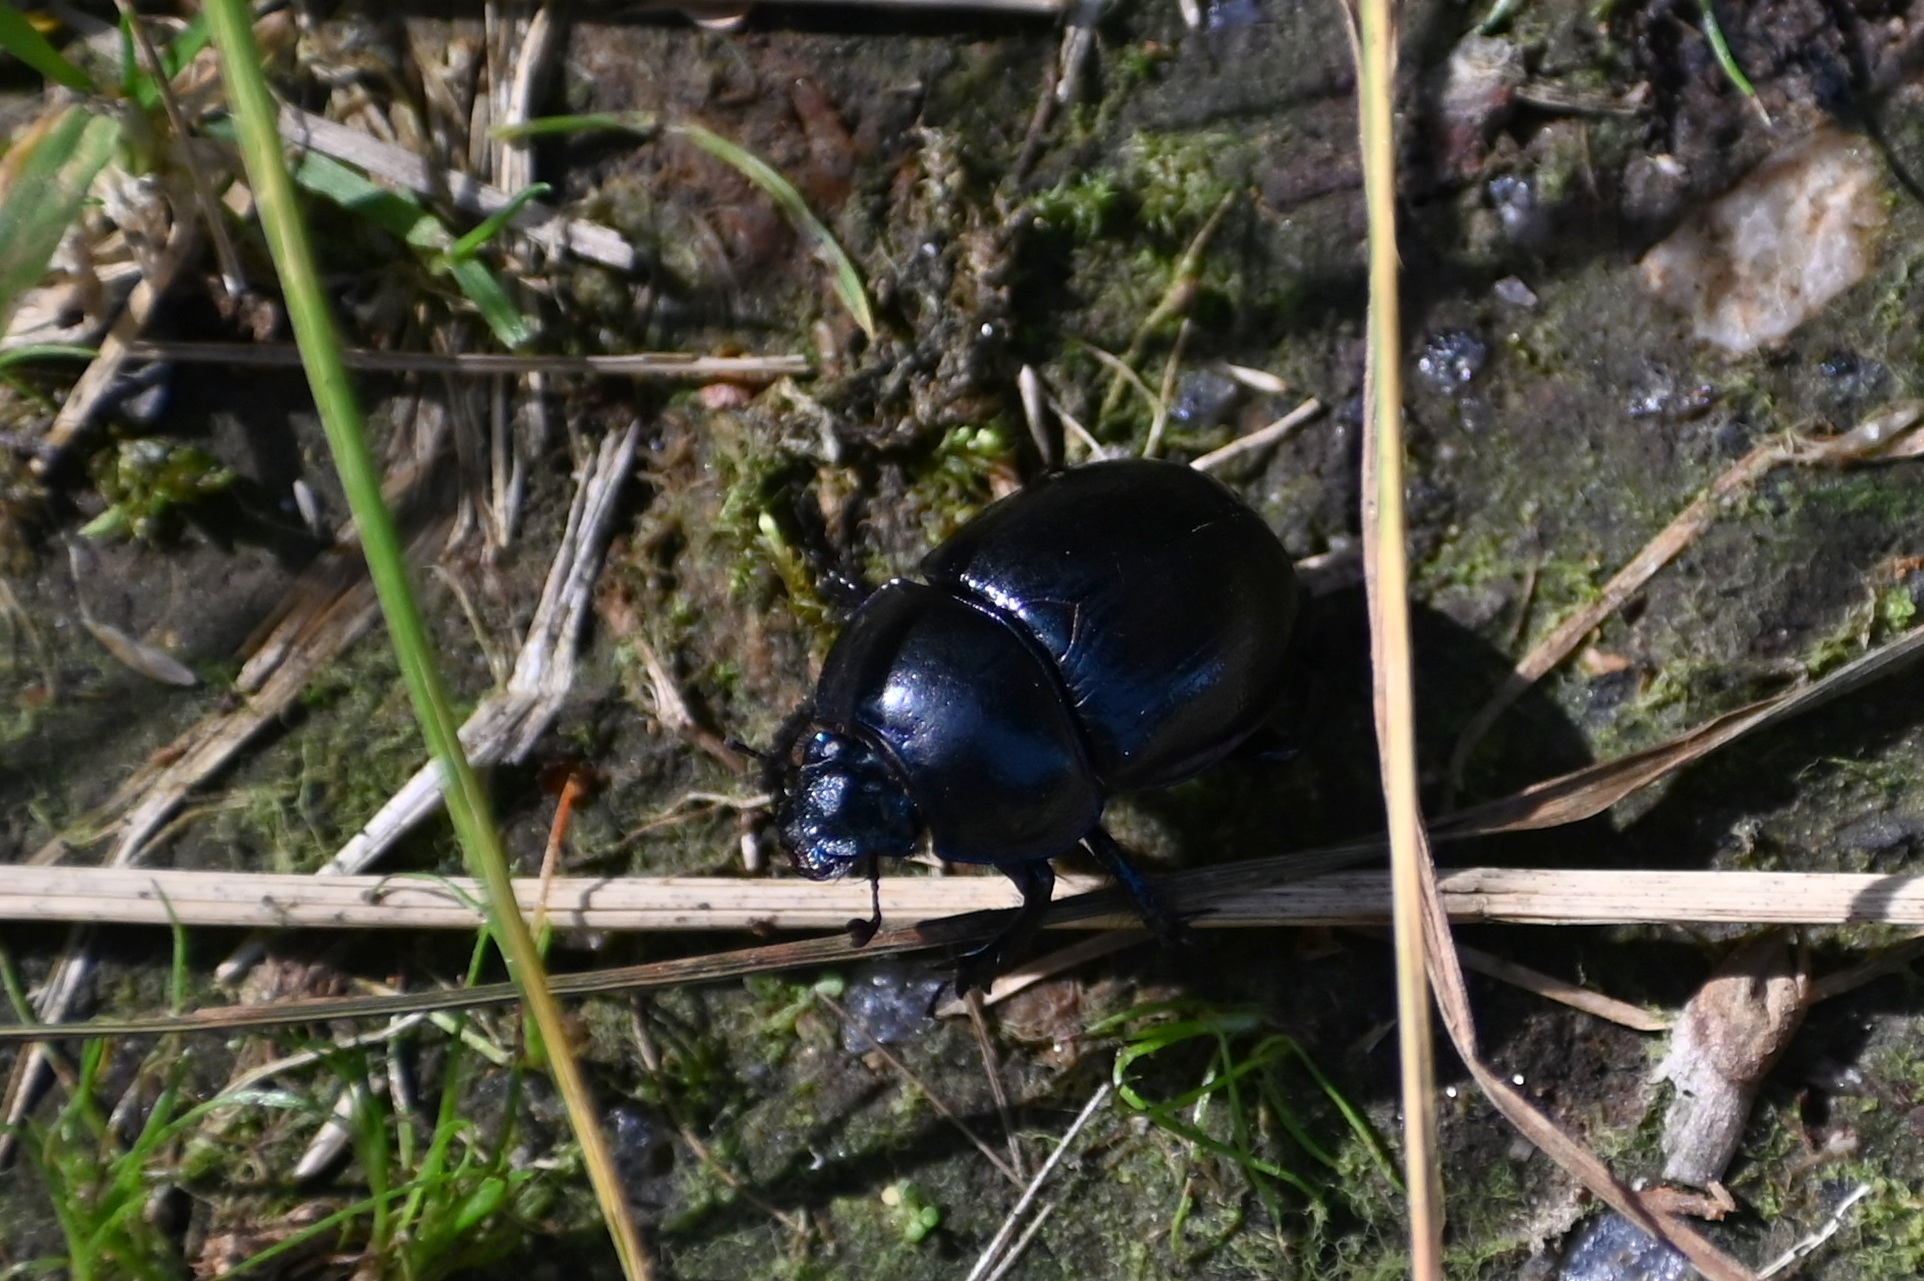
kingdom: Animalia
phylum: Arthropoda
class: Insecta
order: Coleoptera
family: Geotrupidae
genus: Anoplotrupes
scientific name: Anoplotrupes stercorosus
